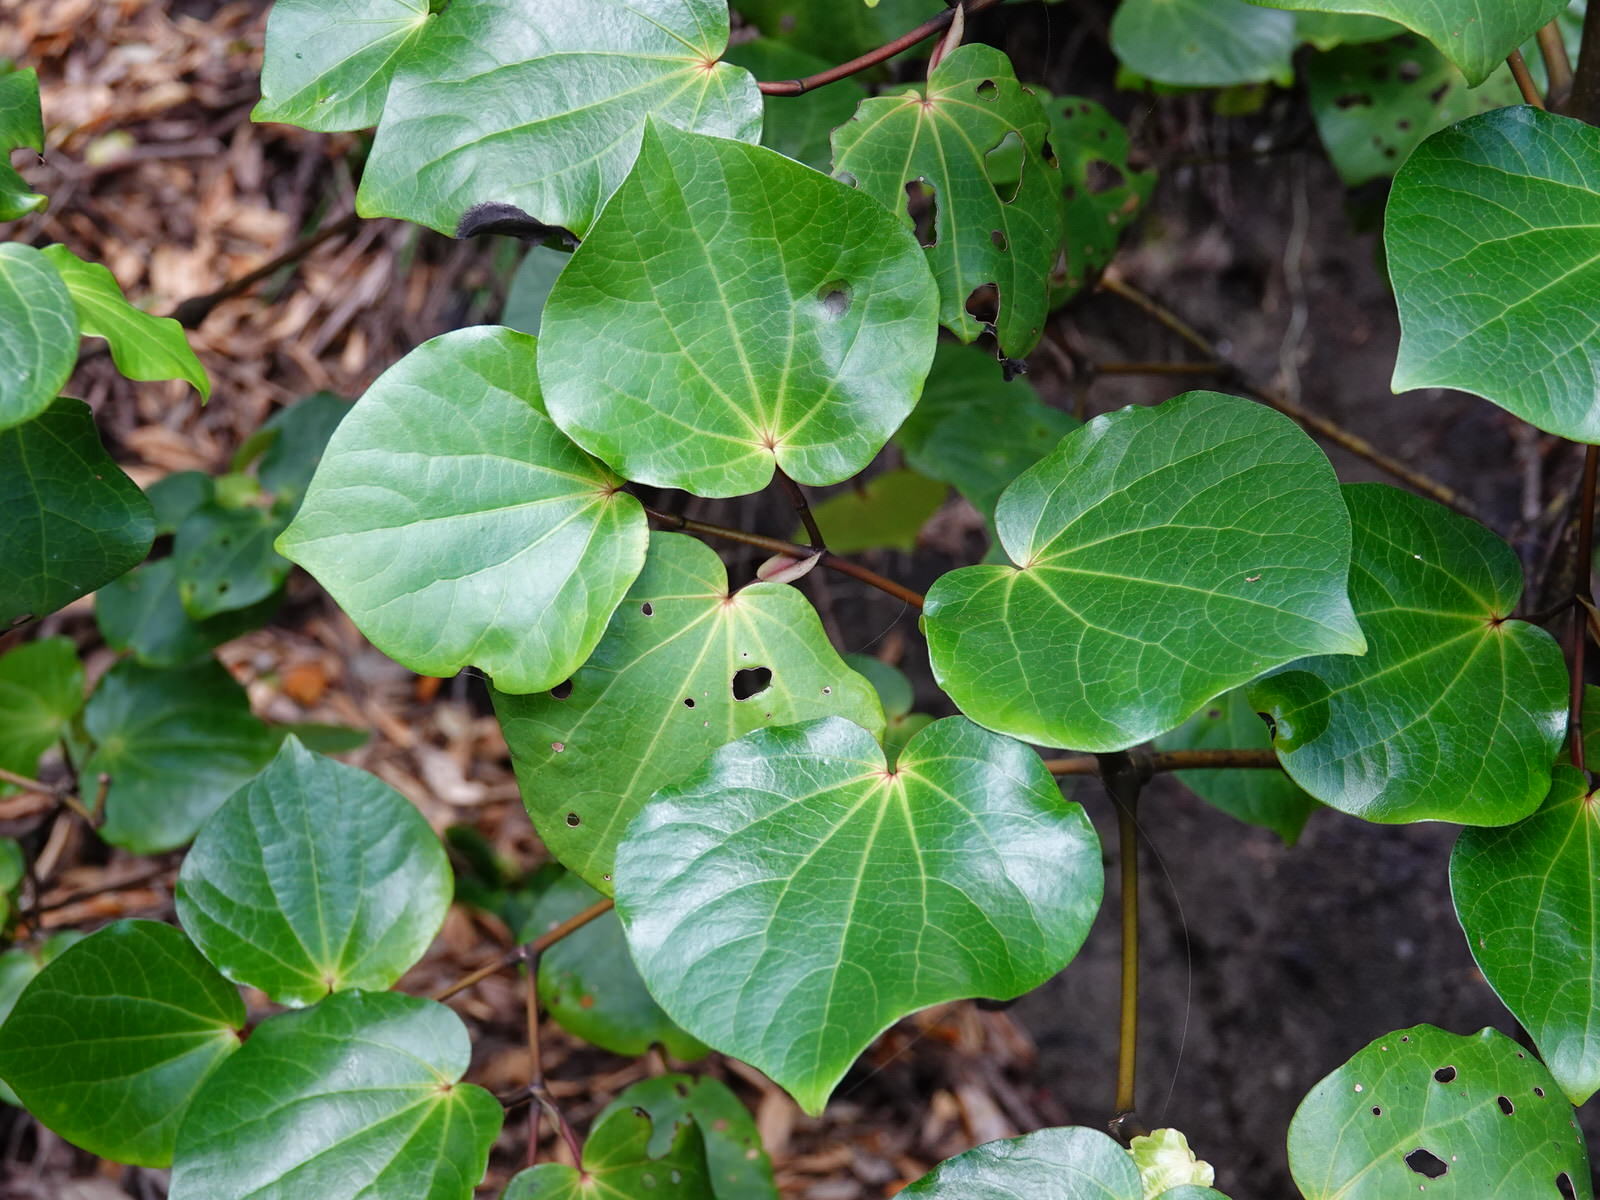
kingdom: Plantae
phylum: Tracheophyta
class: Magnoliopsida
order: Piperales
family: Piperaceae
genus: Macropiper
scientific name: Macropiper excelsum
